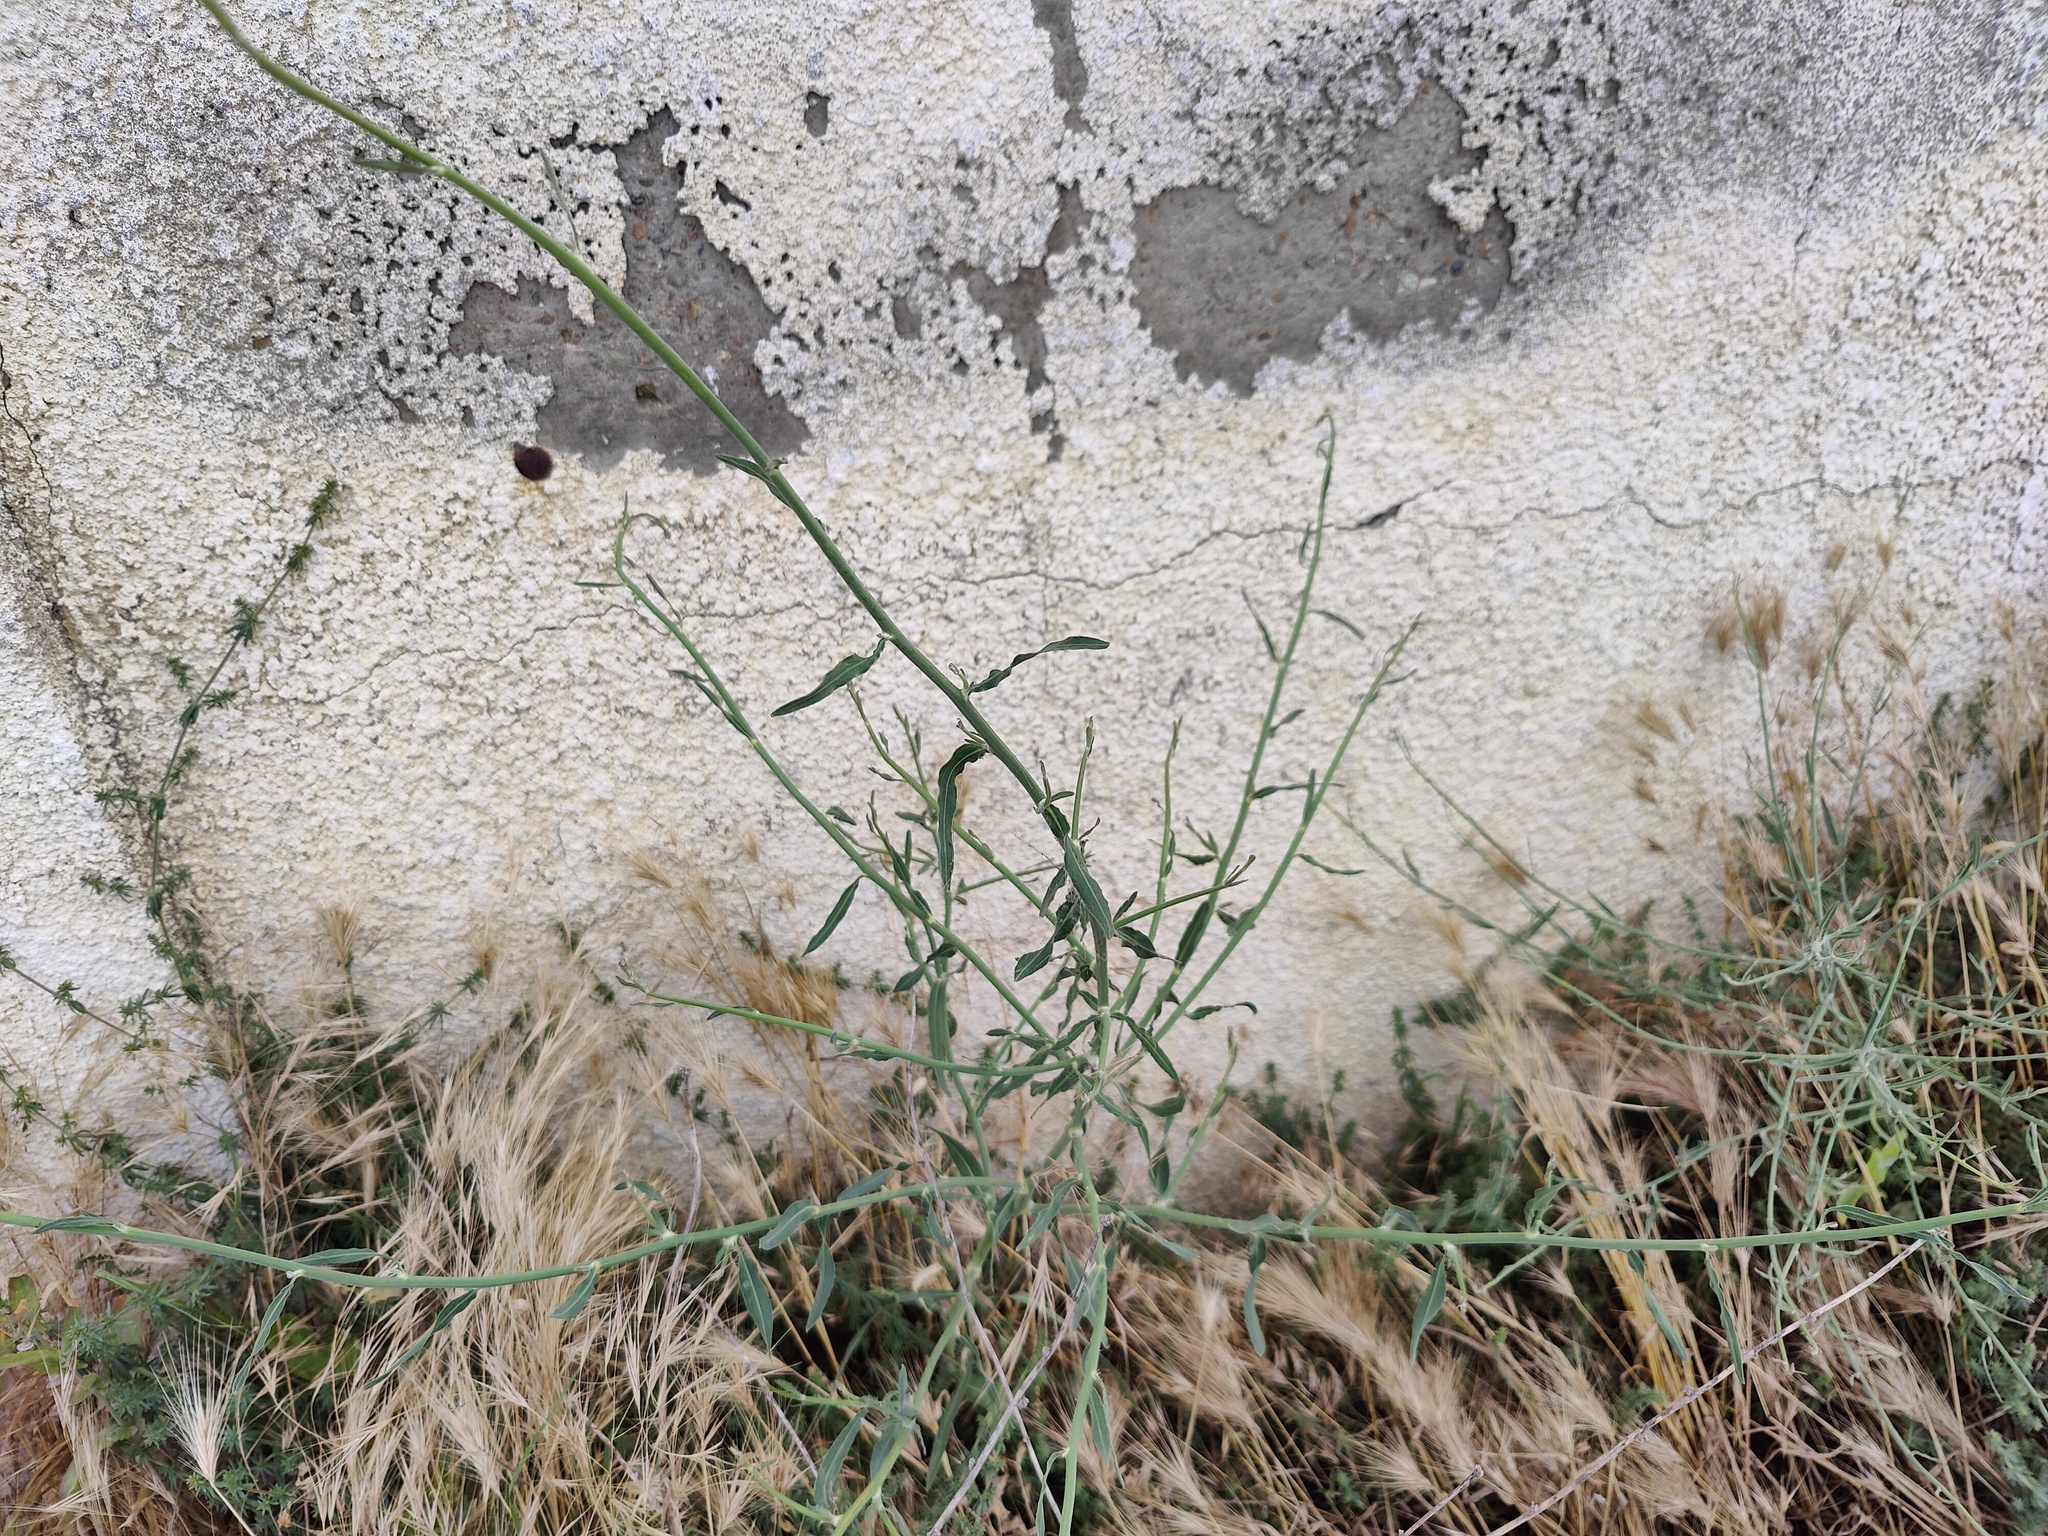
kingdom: Plantae
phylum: Tracheophyta
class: Magnoliopsida
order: Asterales
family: Asteraceae
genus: Chondrilla
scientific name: Chondrilla juncea
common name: Skeleton weed
